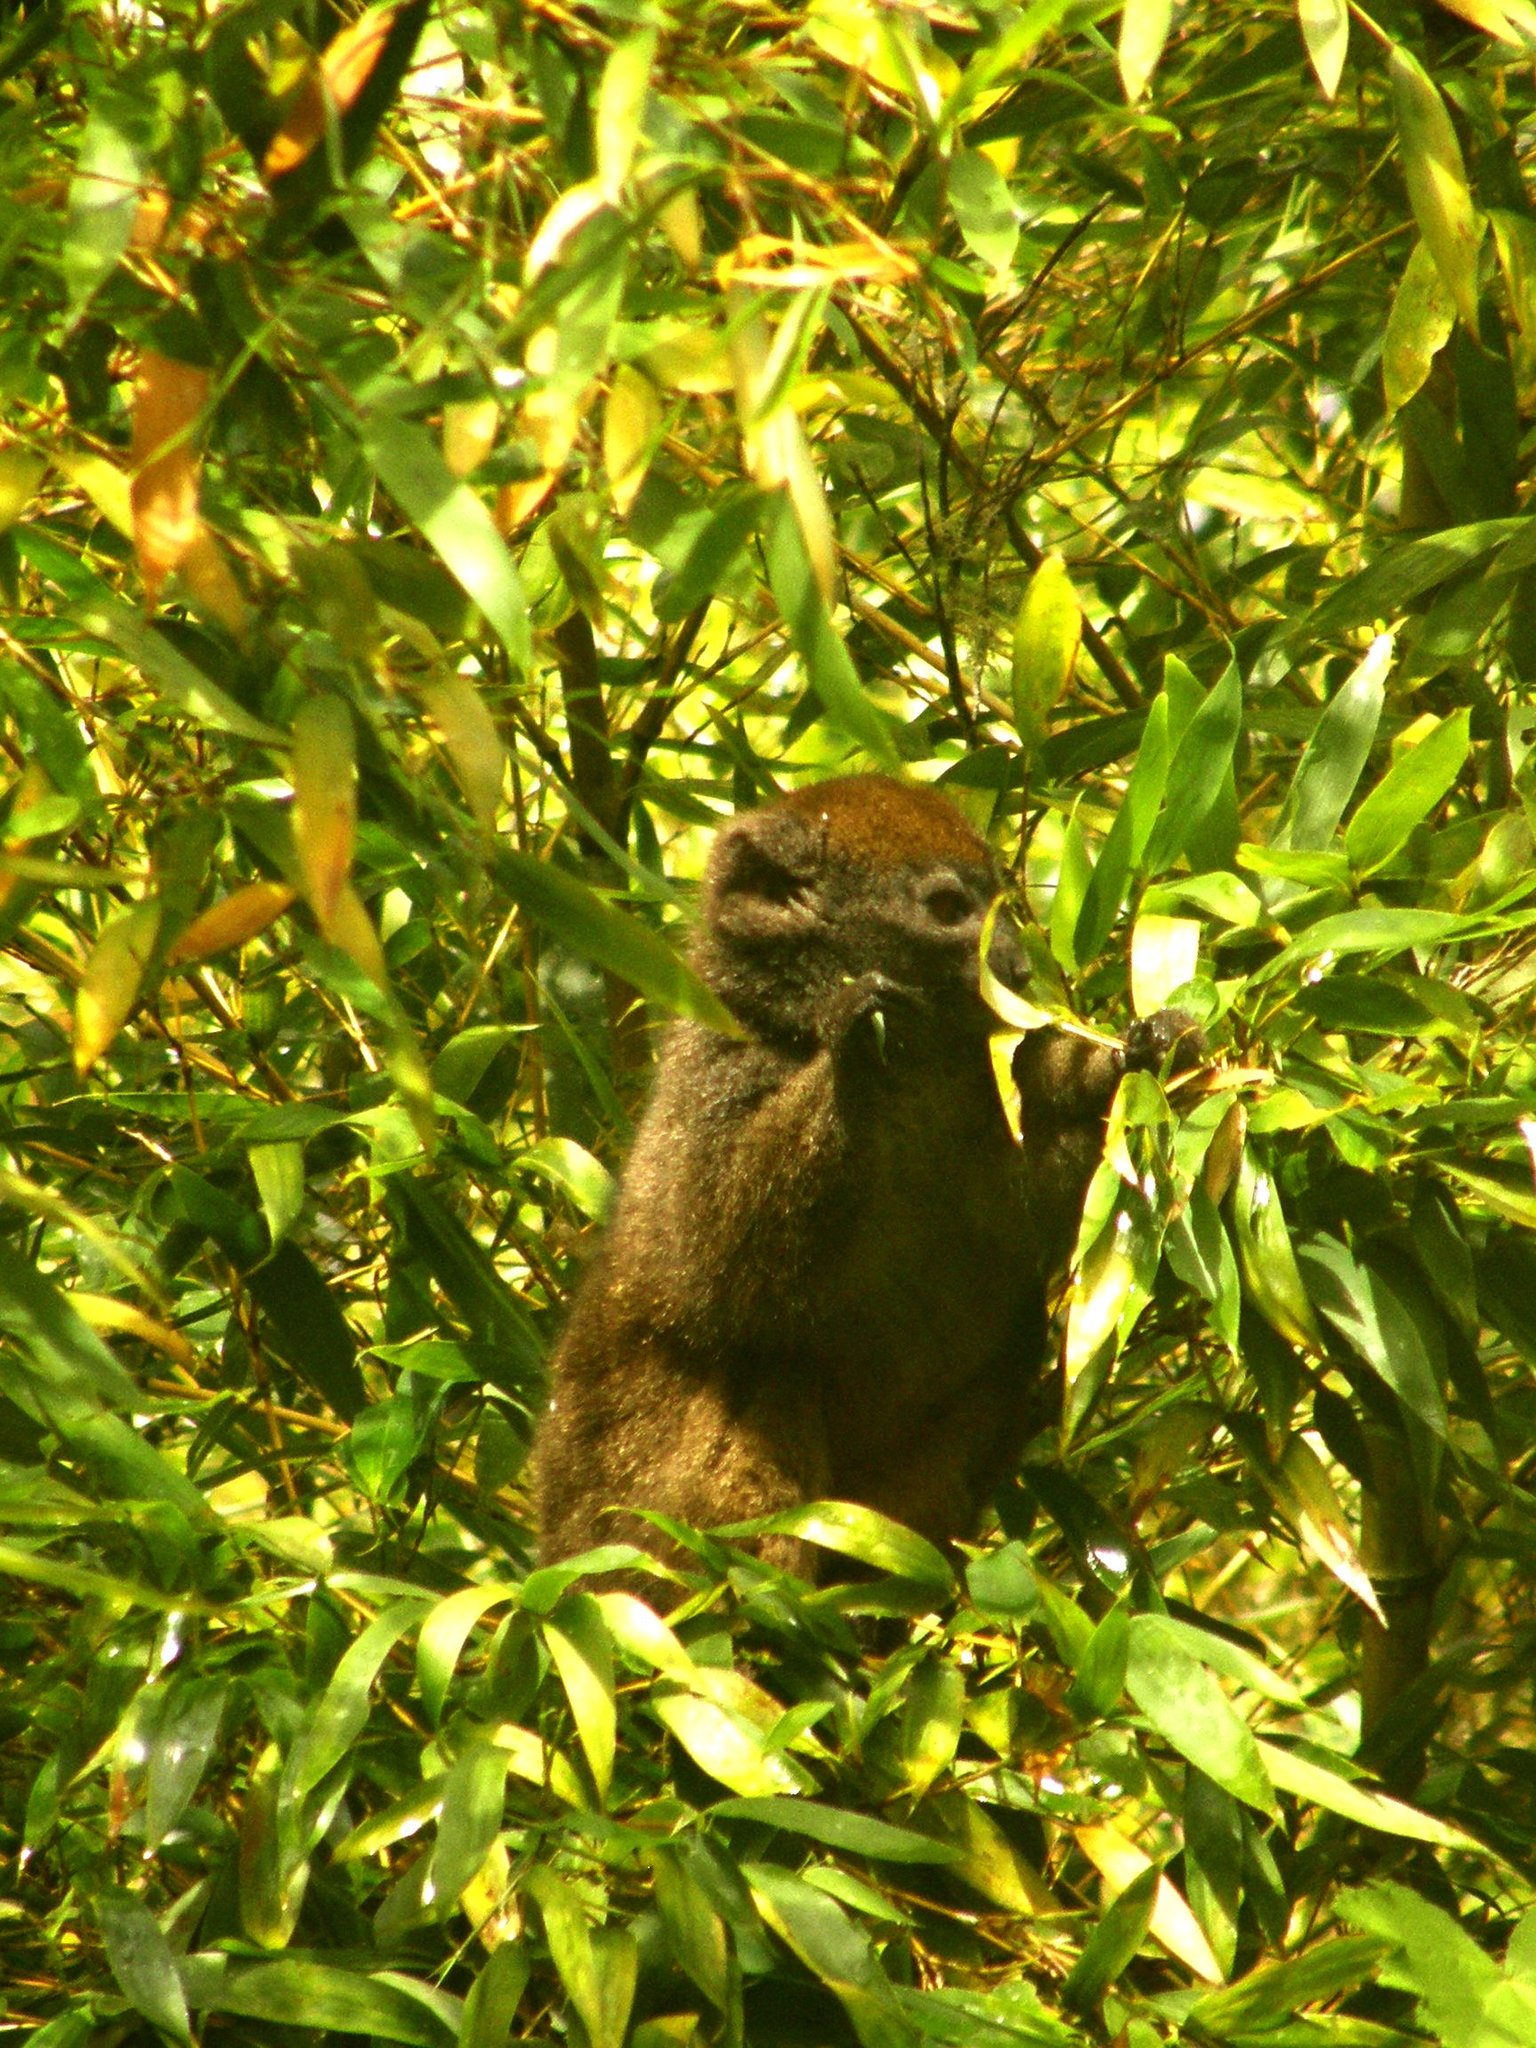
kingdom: Animalia
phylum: Chordata
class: Mammalia
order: Primates
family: Lemuridae
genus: Hapalemur
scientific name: Hapalemur griseus
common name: Gray bamboo lemur
